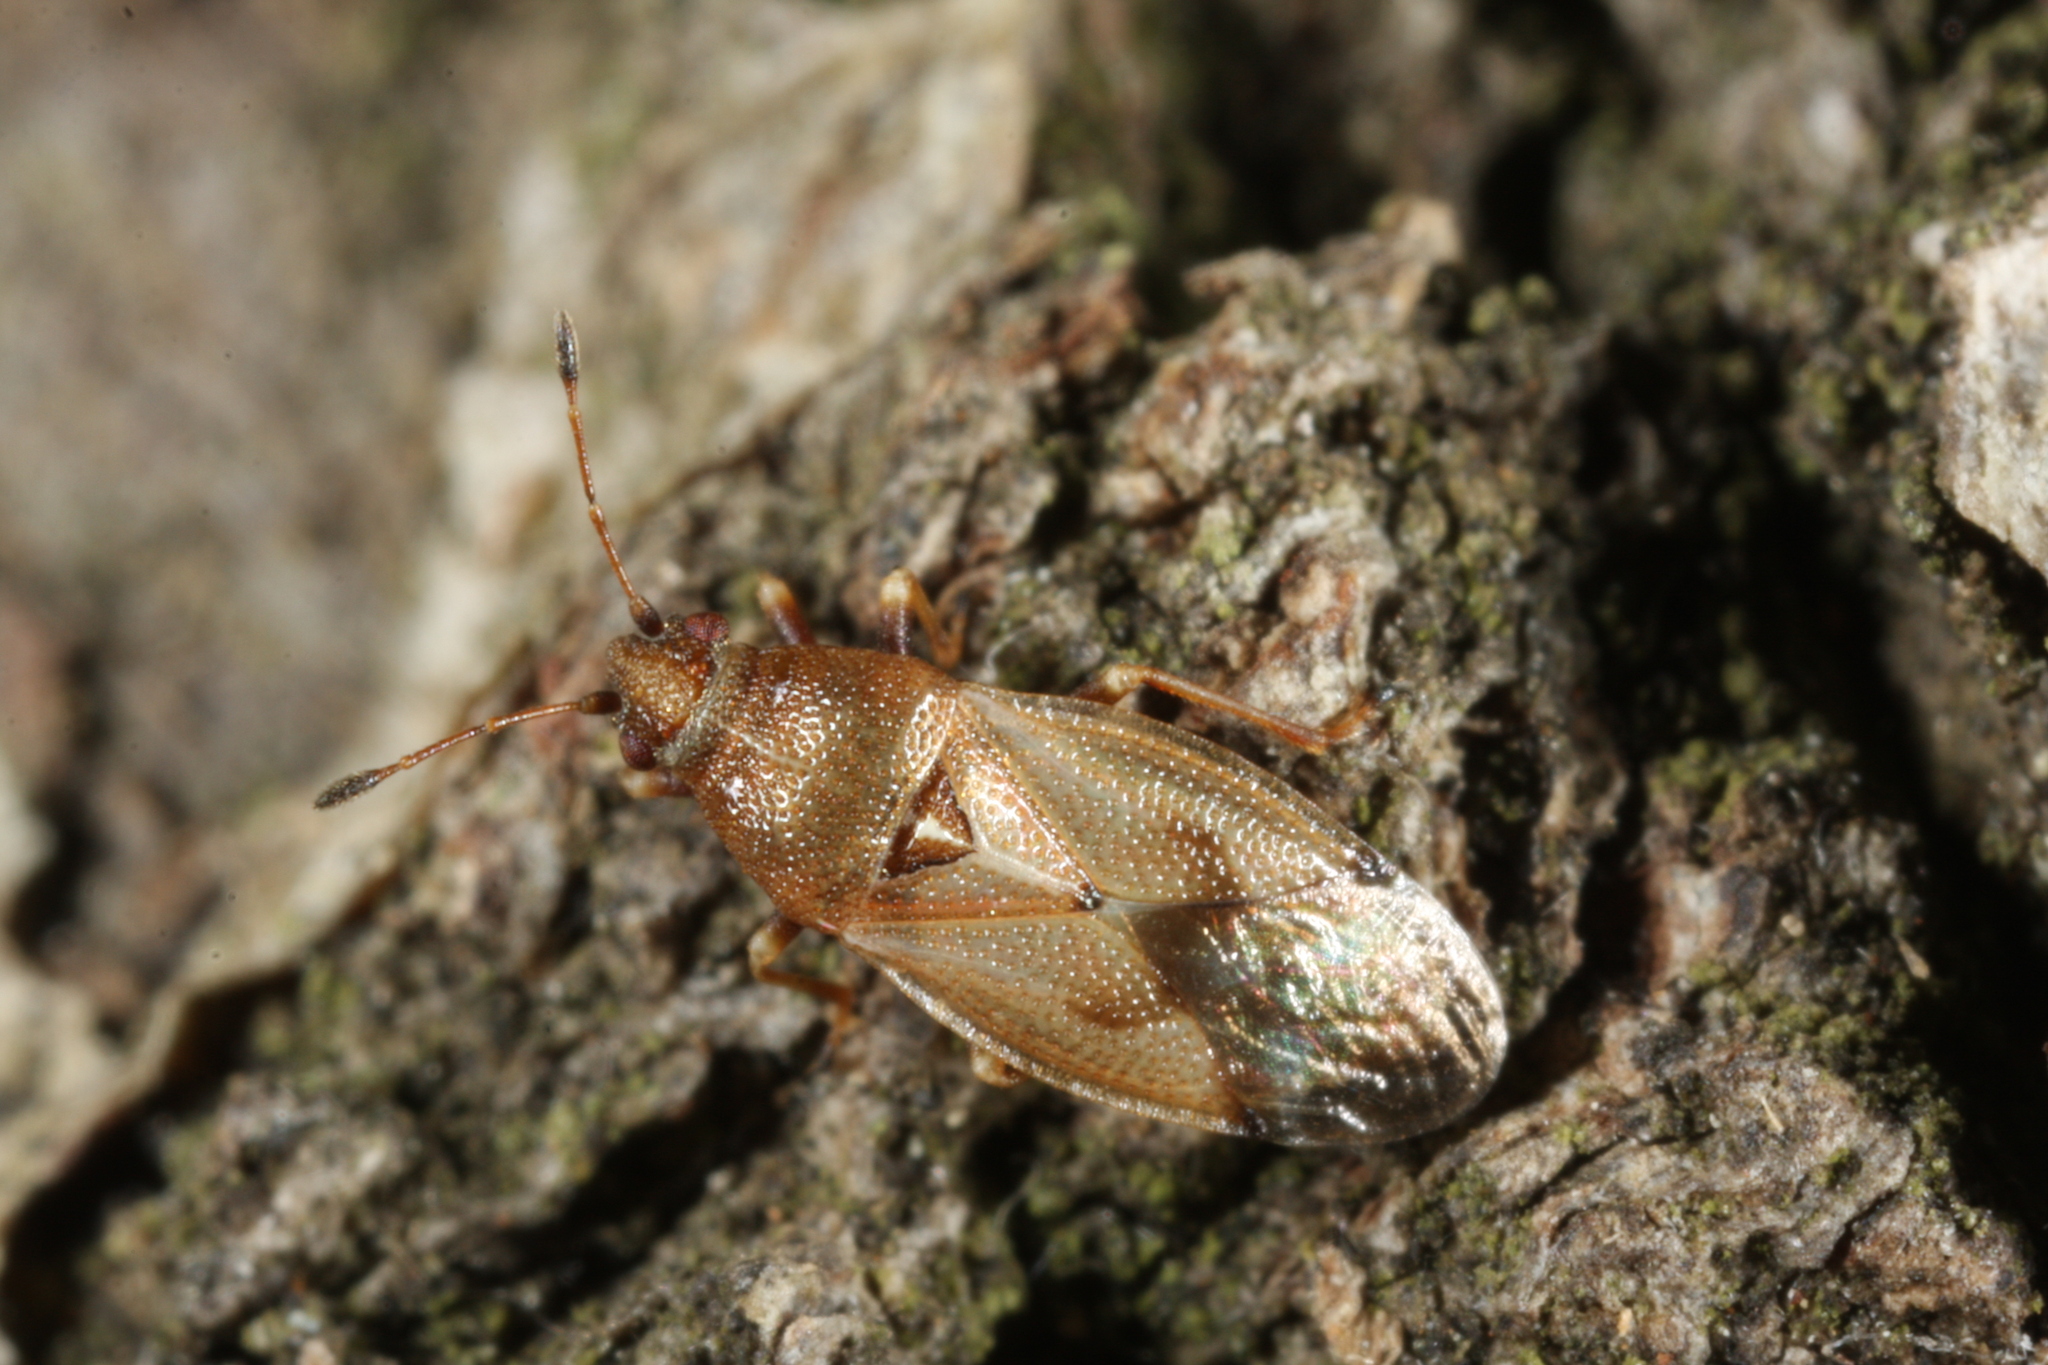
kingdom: Animalia
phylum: Arthropoda
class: Insecta
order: Hemiptera
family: Cymidae
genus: Cymus
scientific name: Cymus aurescens
